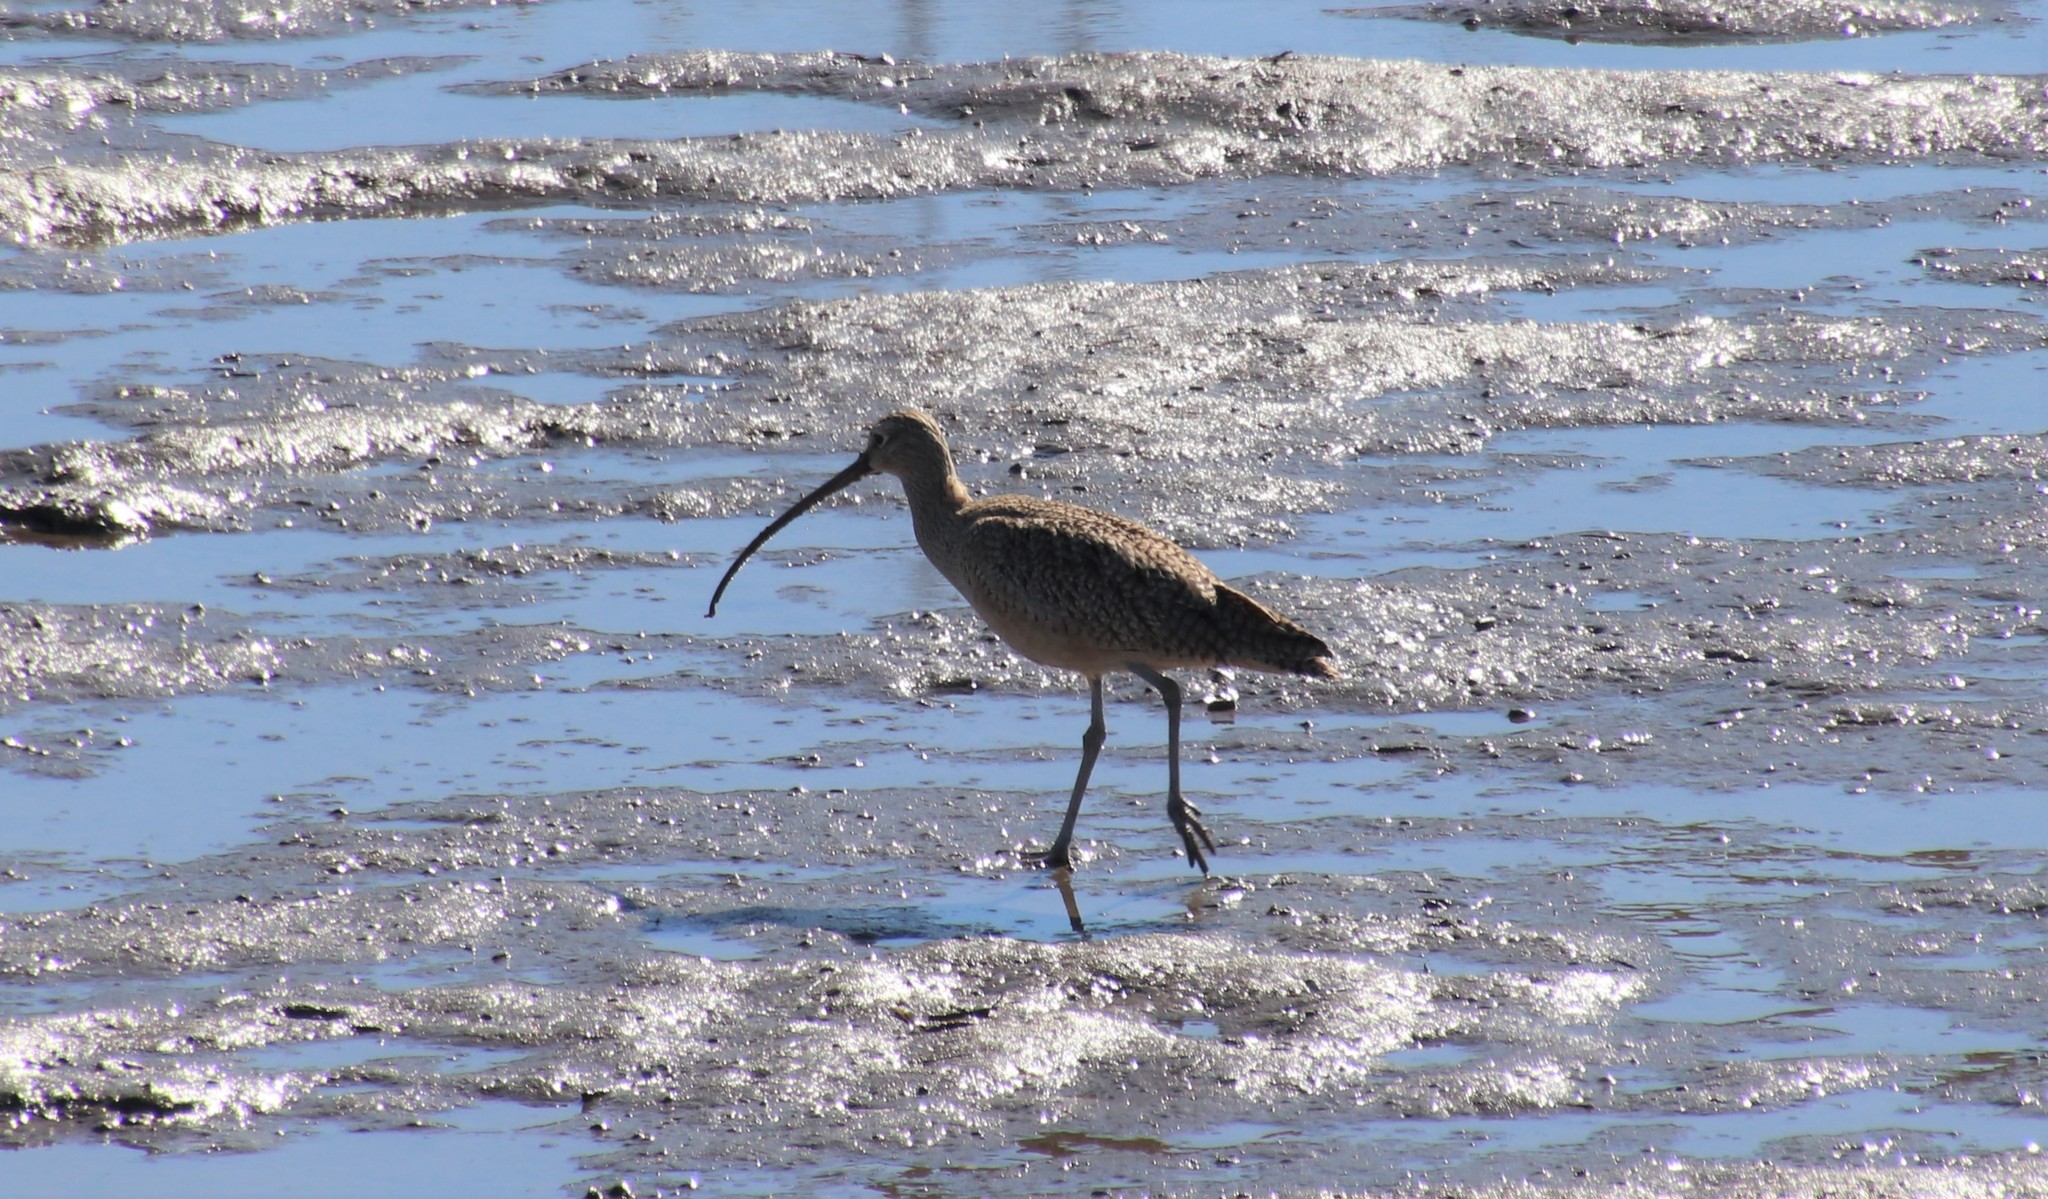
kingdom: Animalia
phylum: Chordata
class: Aves
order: Charadriiformes
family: Scolopacidae
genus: Numenius
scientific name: Numenius americanus
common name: Long-billed curlew
